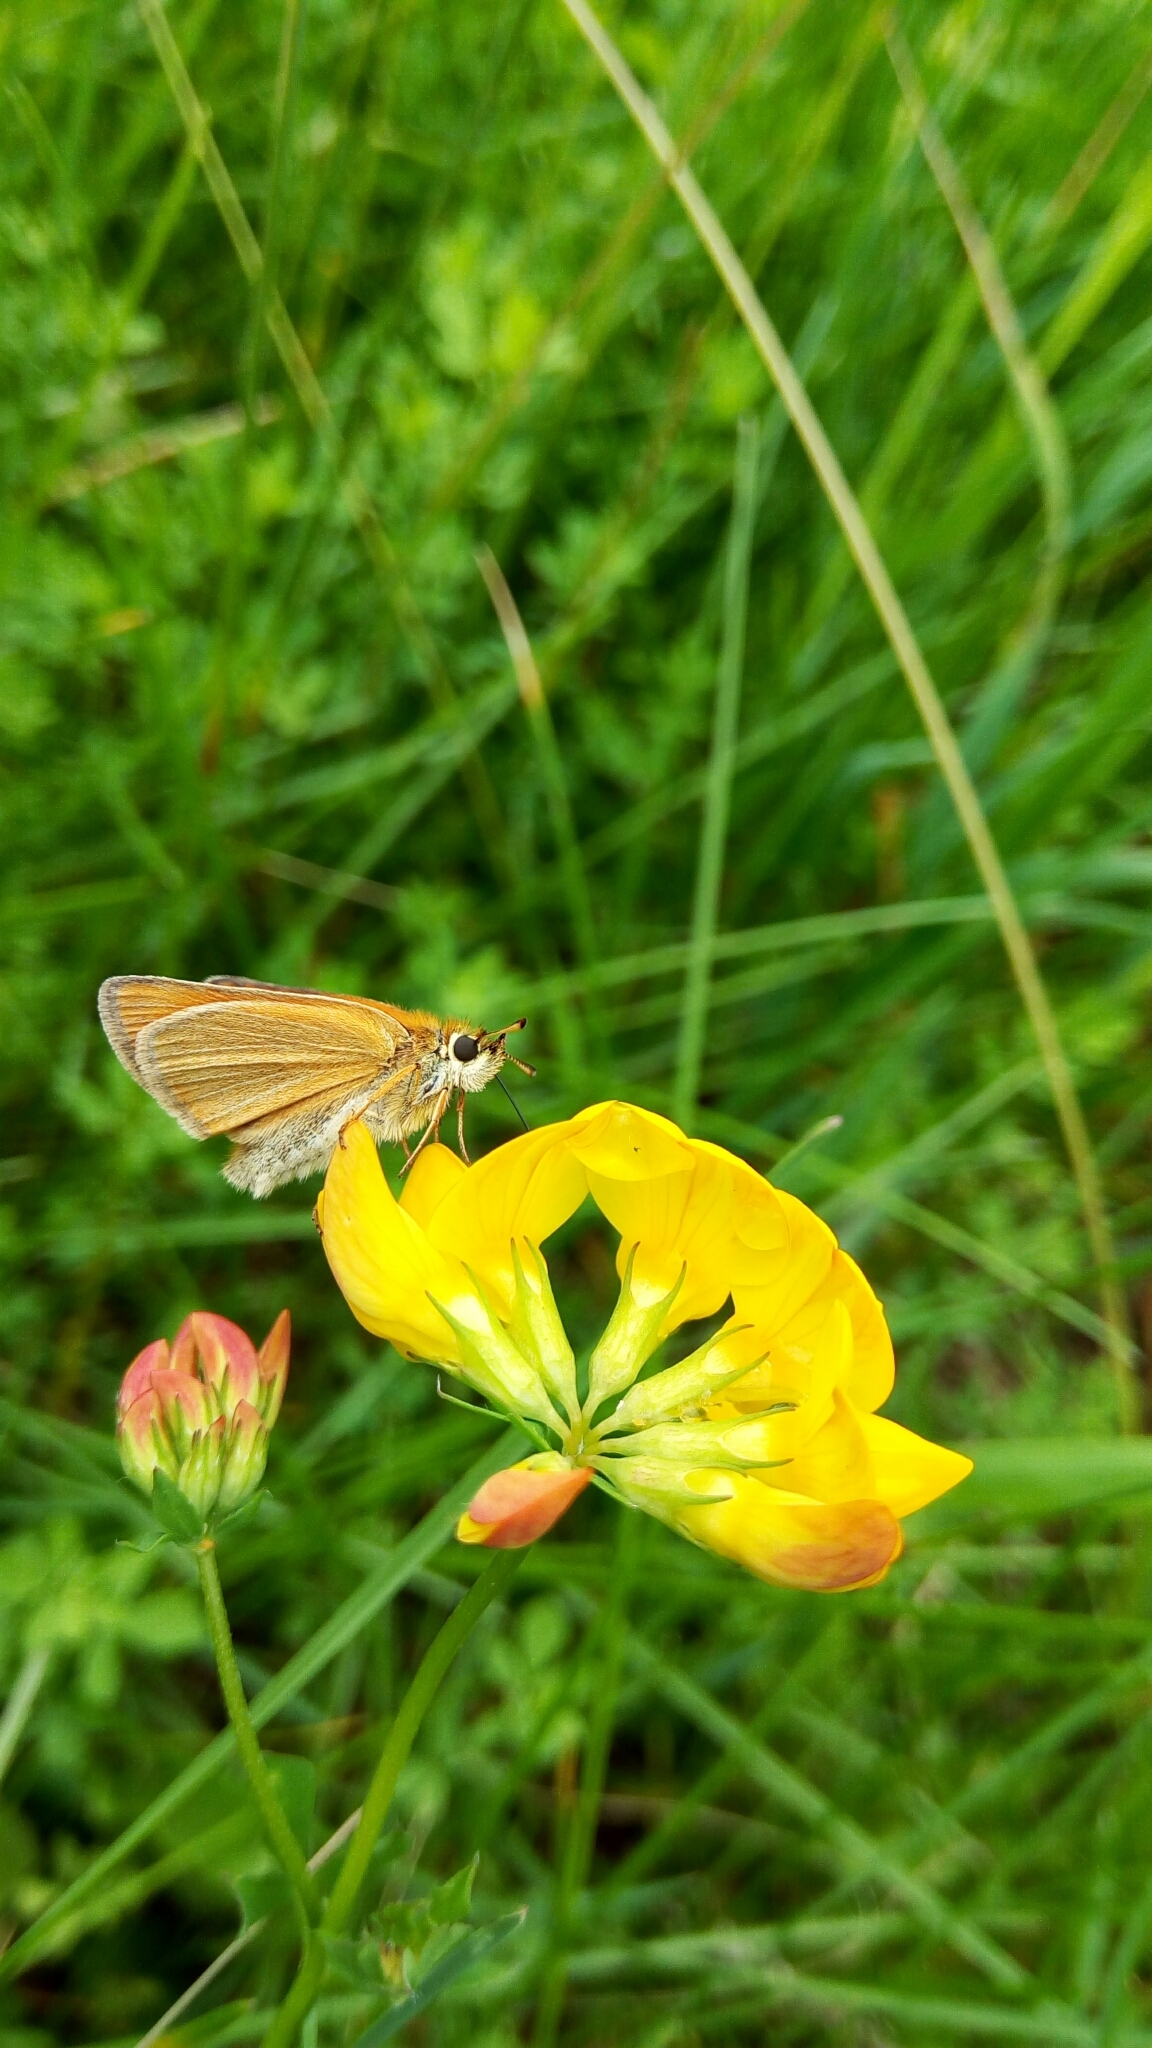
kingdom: Animalia
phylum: Arthropoda
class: Insecta
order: Lepidoptera
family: Hesperiidae
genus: Thymelicus
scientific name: Thymelicus lineola
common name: Essex skipper
